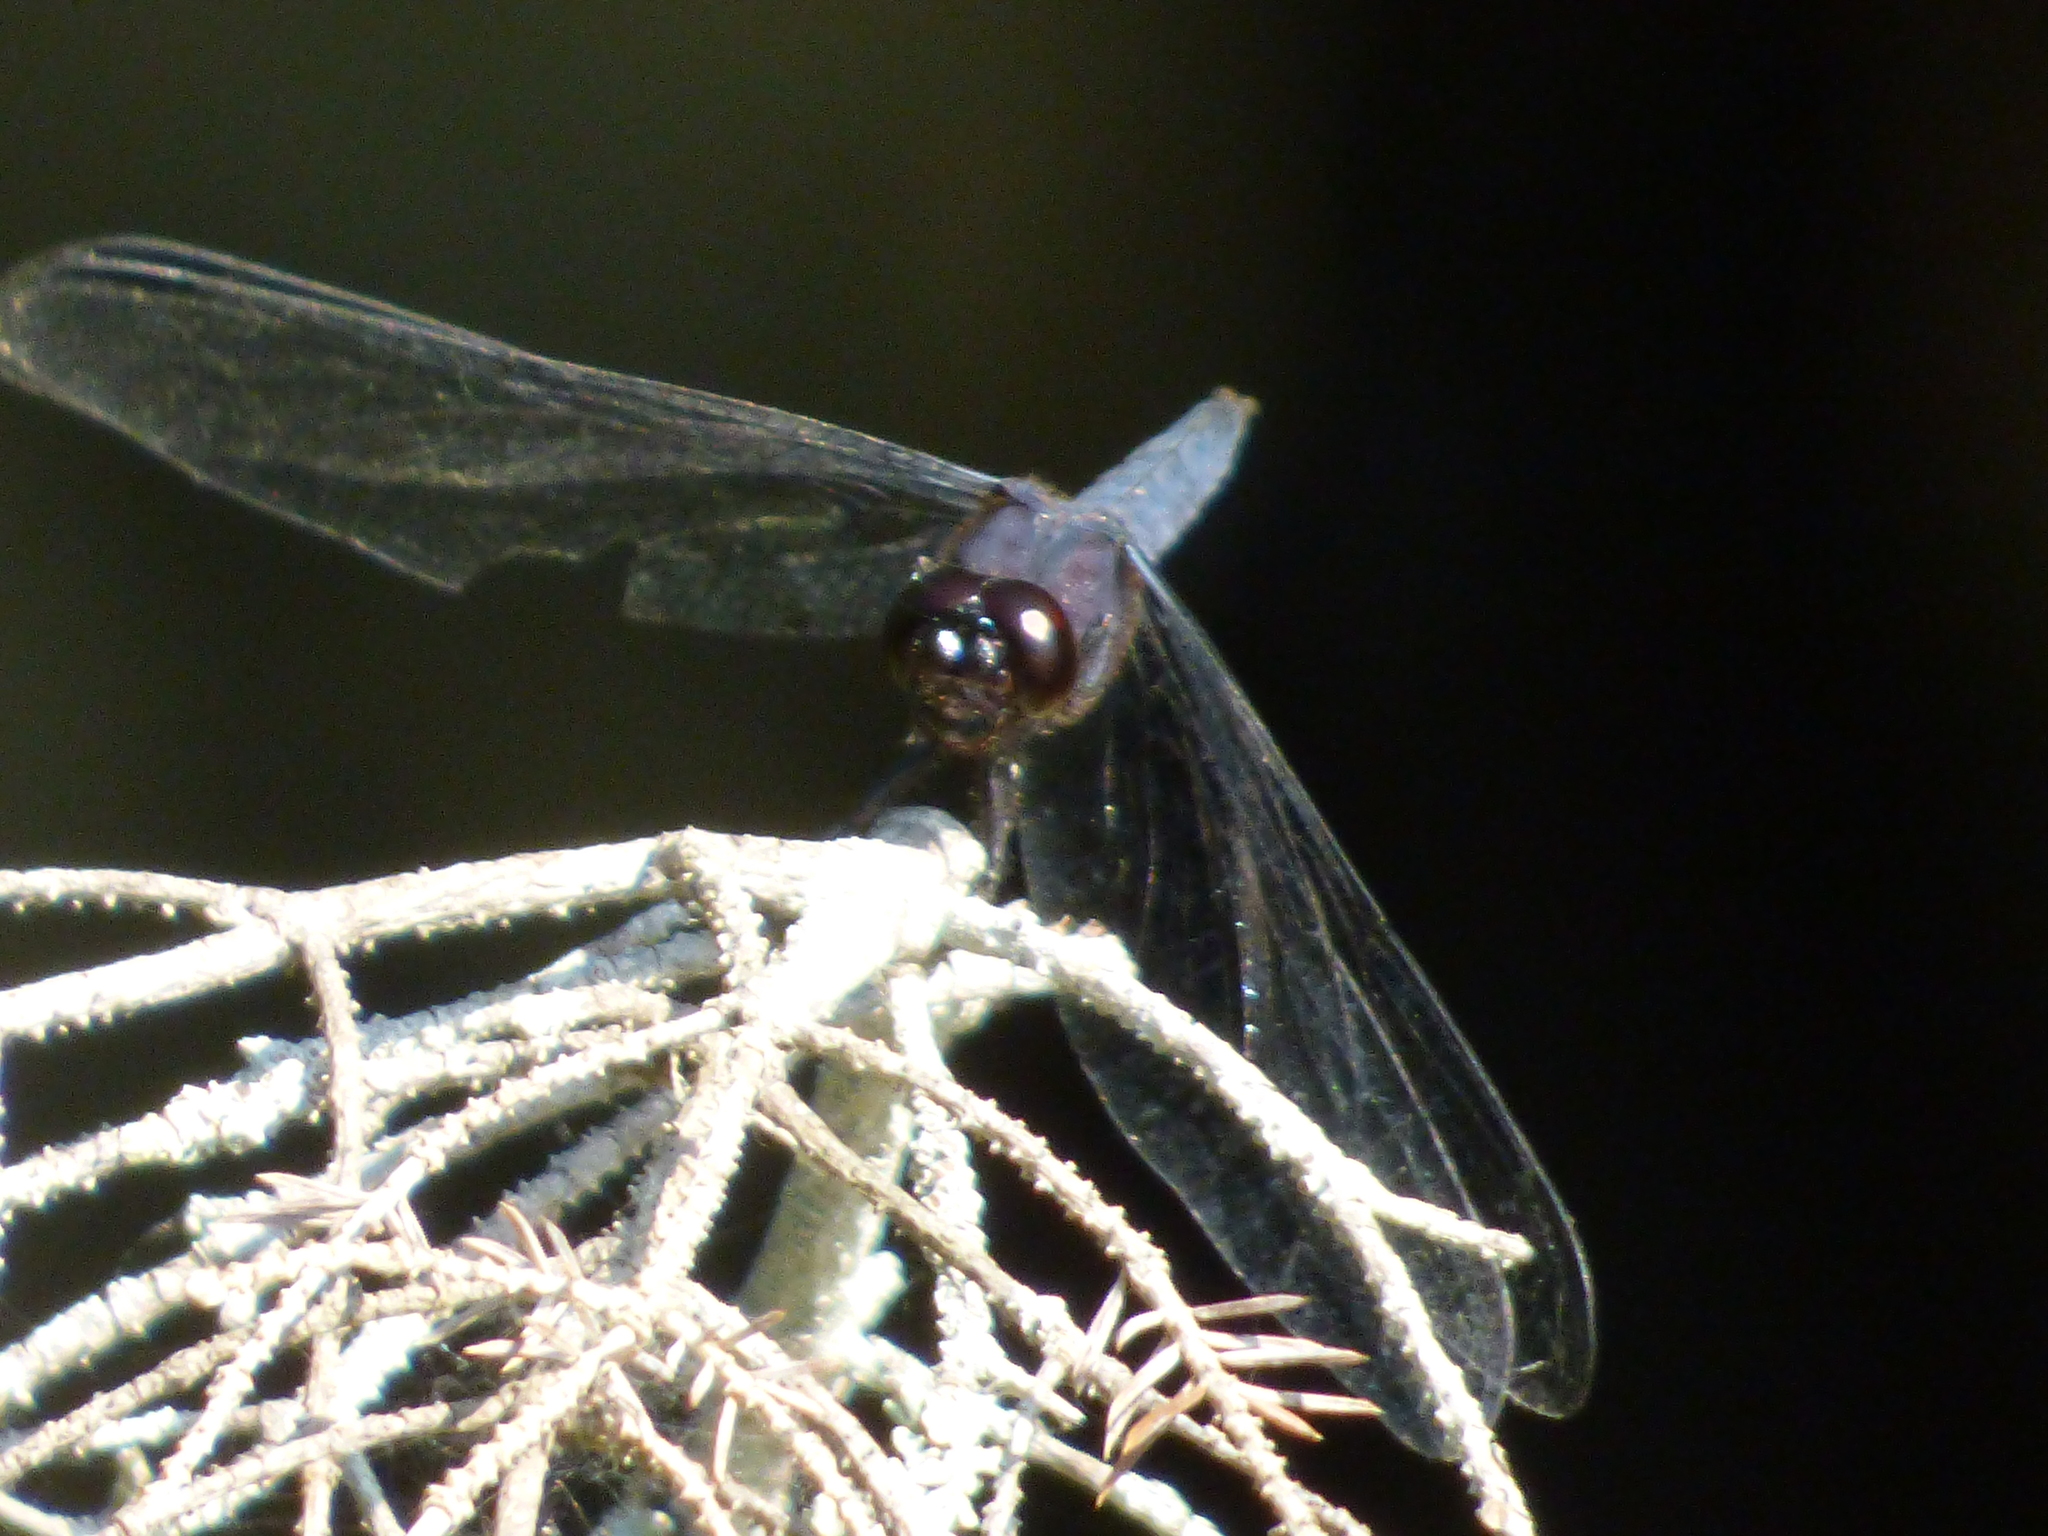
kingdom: Animalia
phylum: Arthropoda
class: Insecta
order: Odonata
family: Libellulidae
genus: Libellula
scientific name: Libellula incesta
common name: Slaty skimmer
